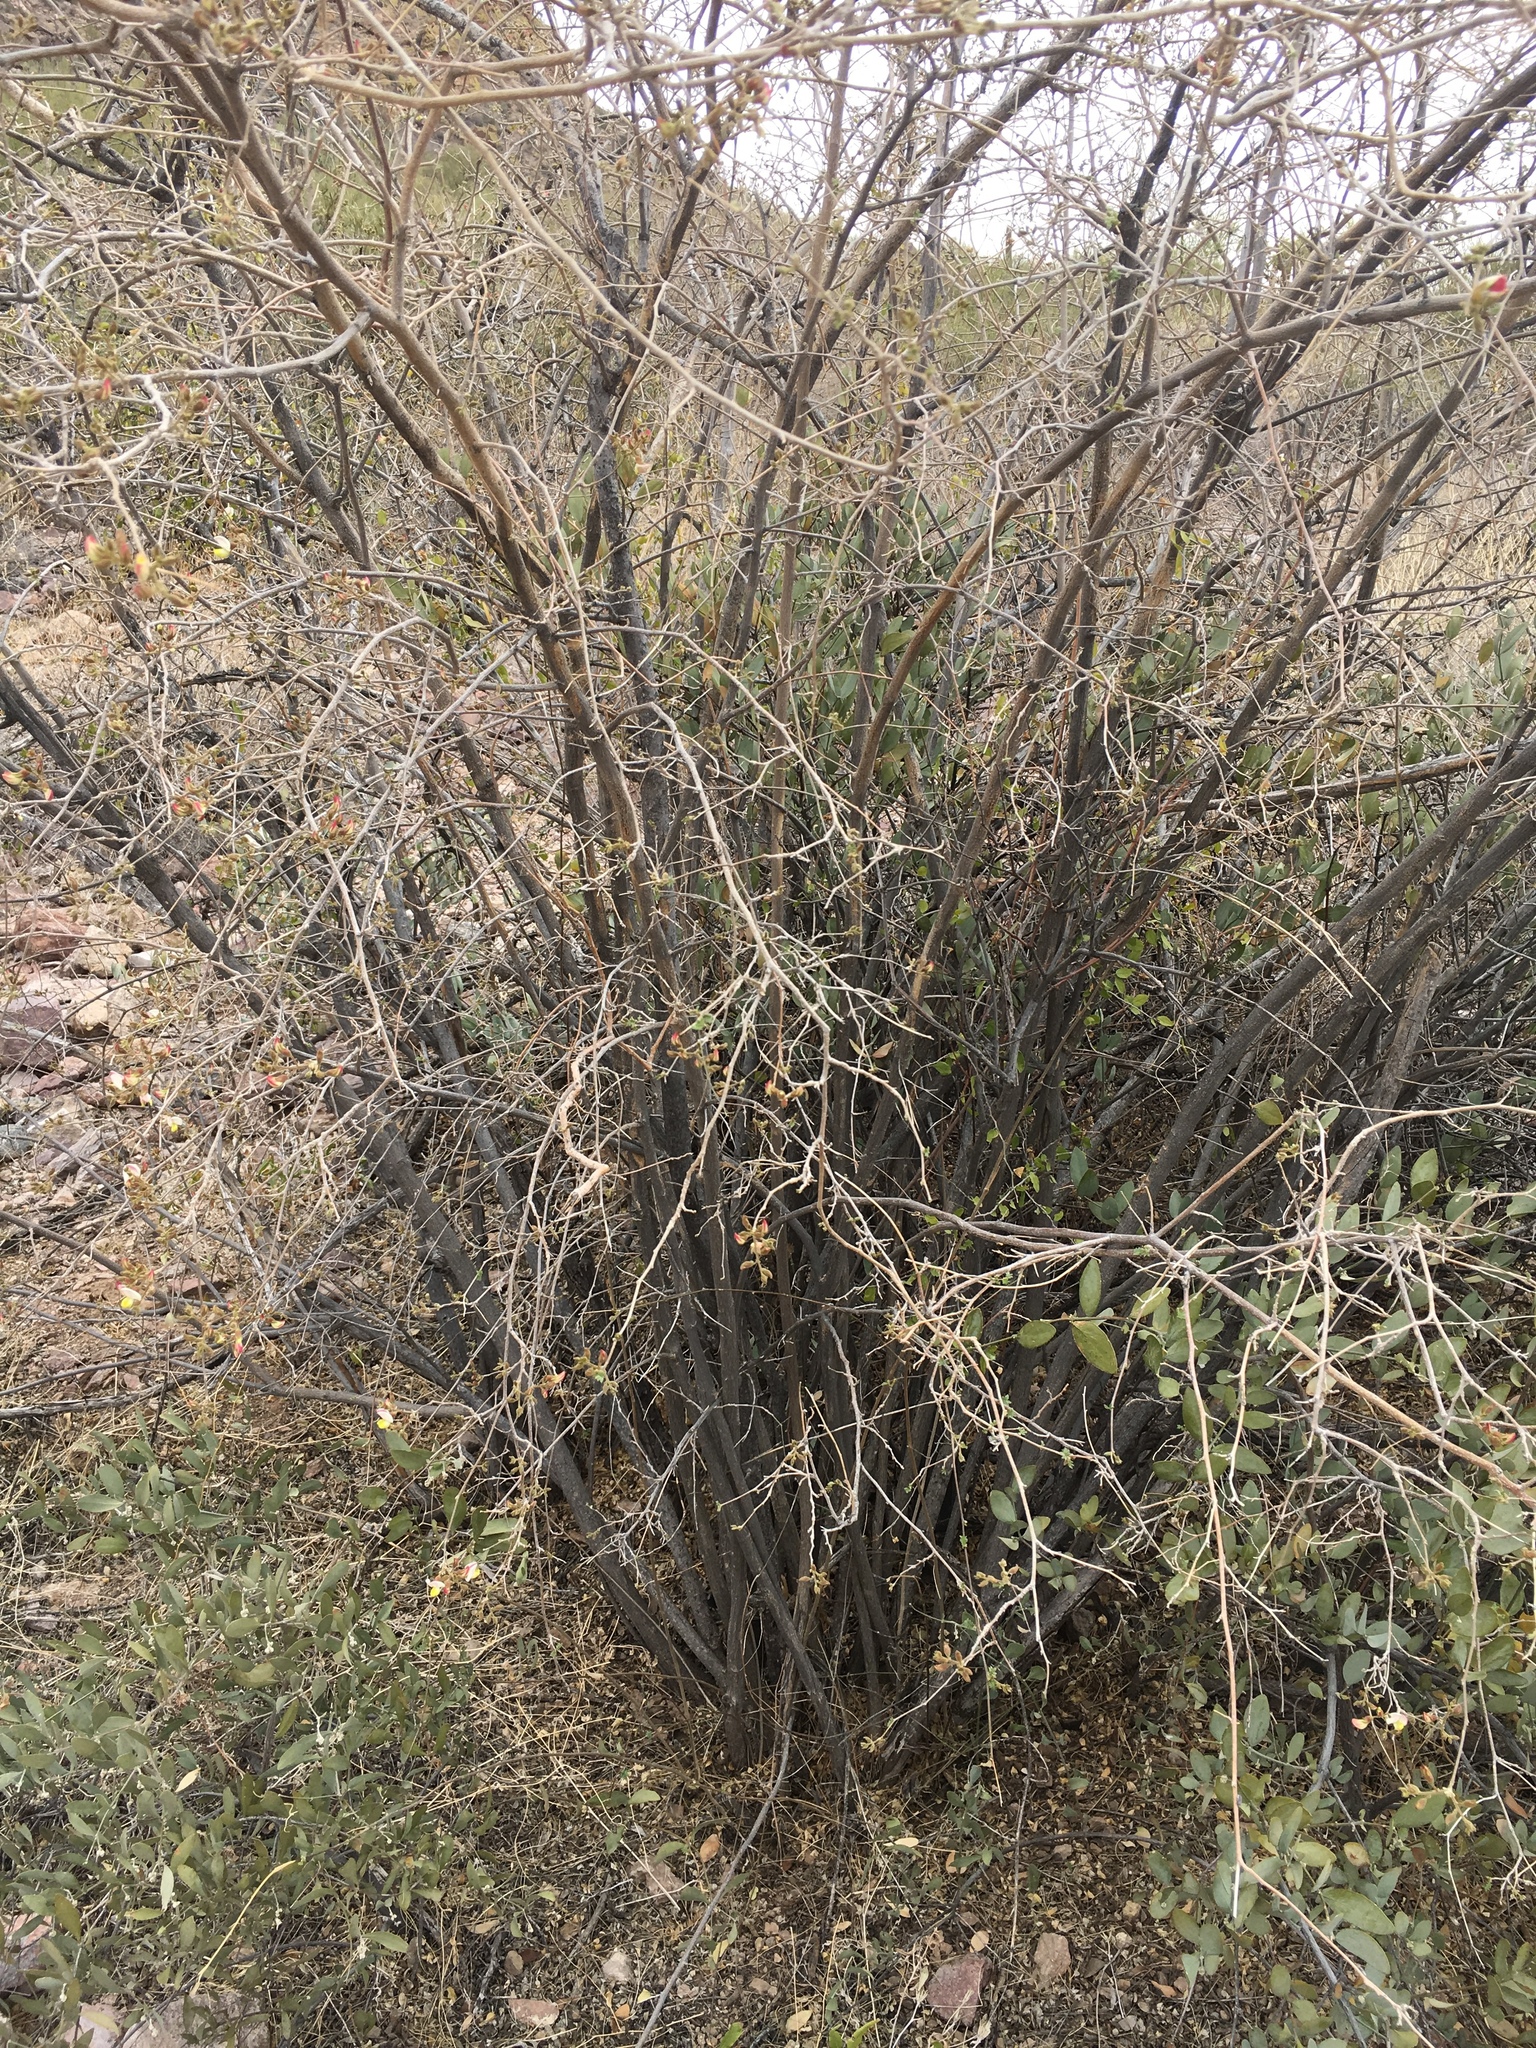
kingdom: Plantae
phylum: Tracheophyta
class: Magnoliopsida
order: Fabales
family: Fabaceae
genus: Coursetia
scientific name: Coursetia glandulosa
